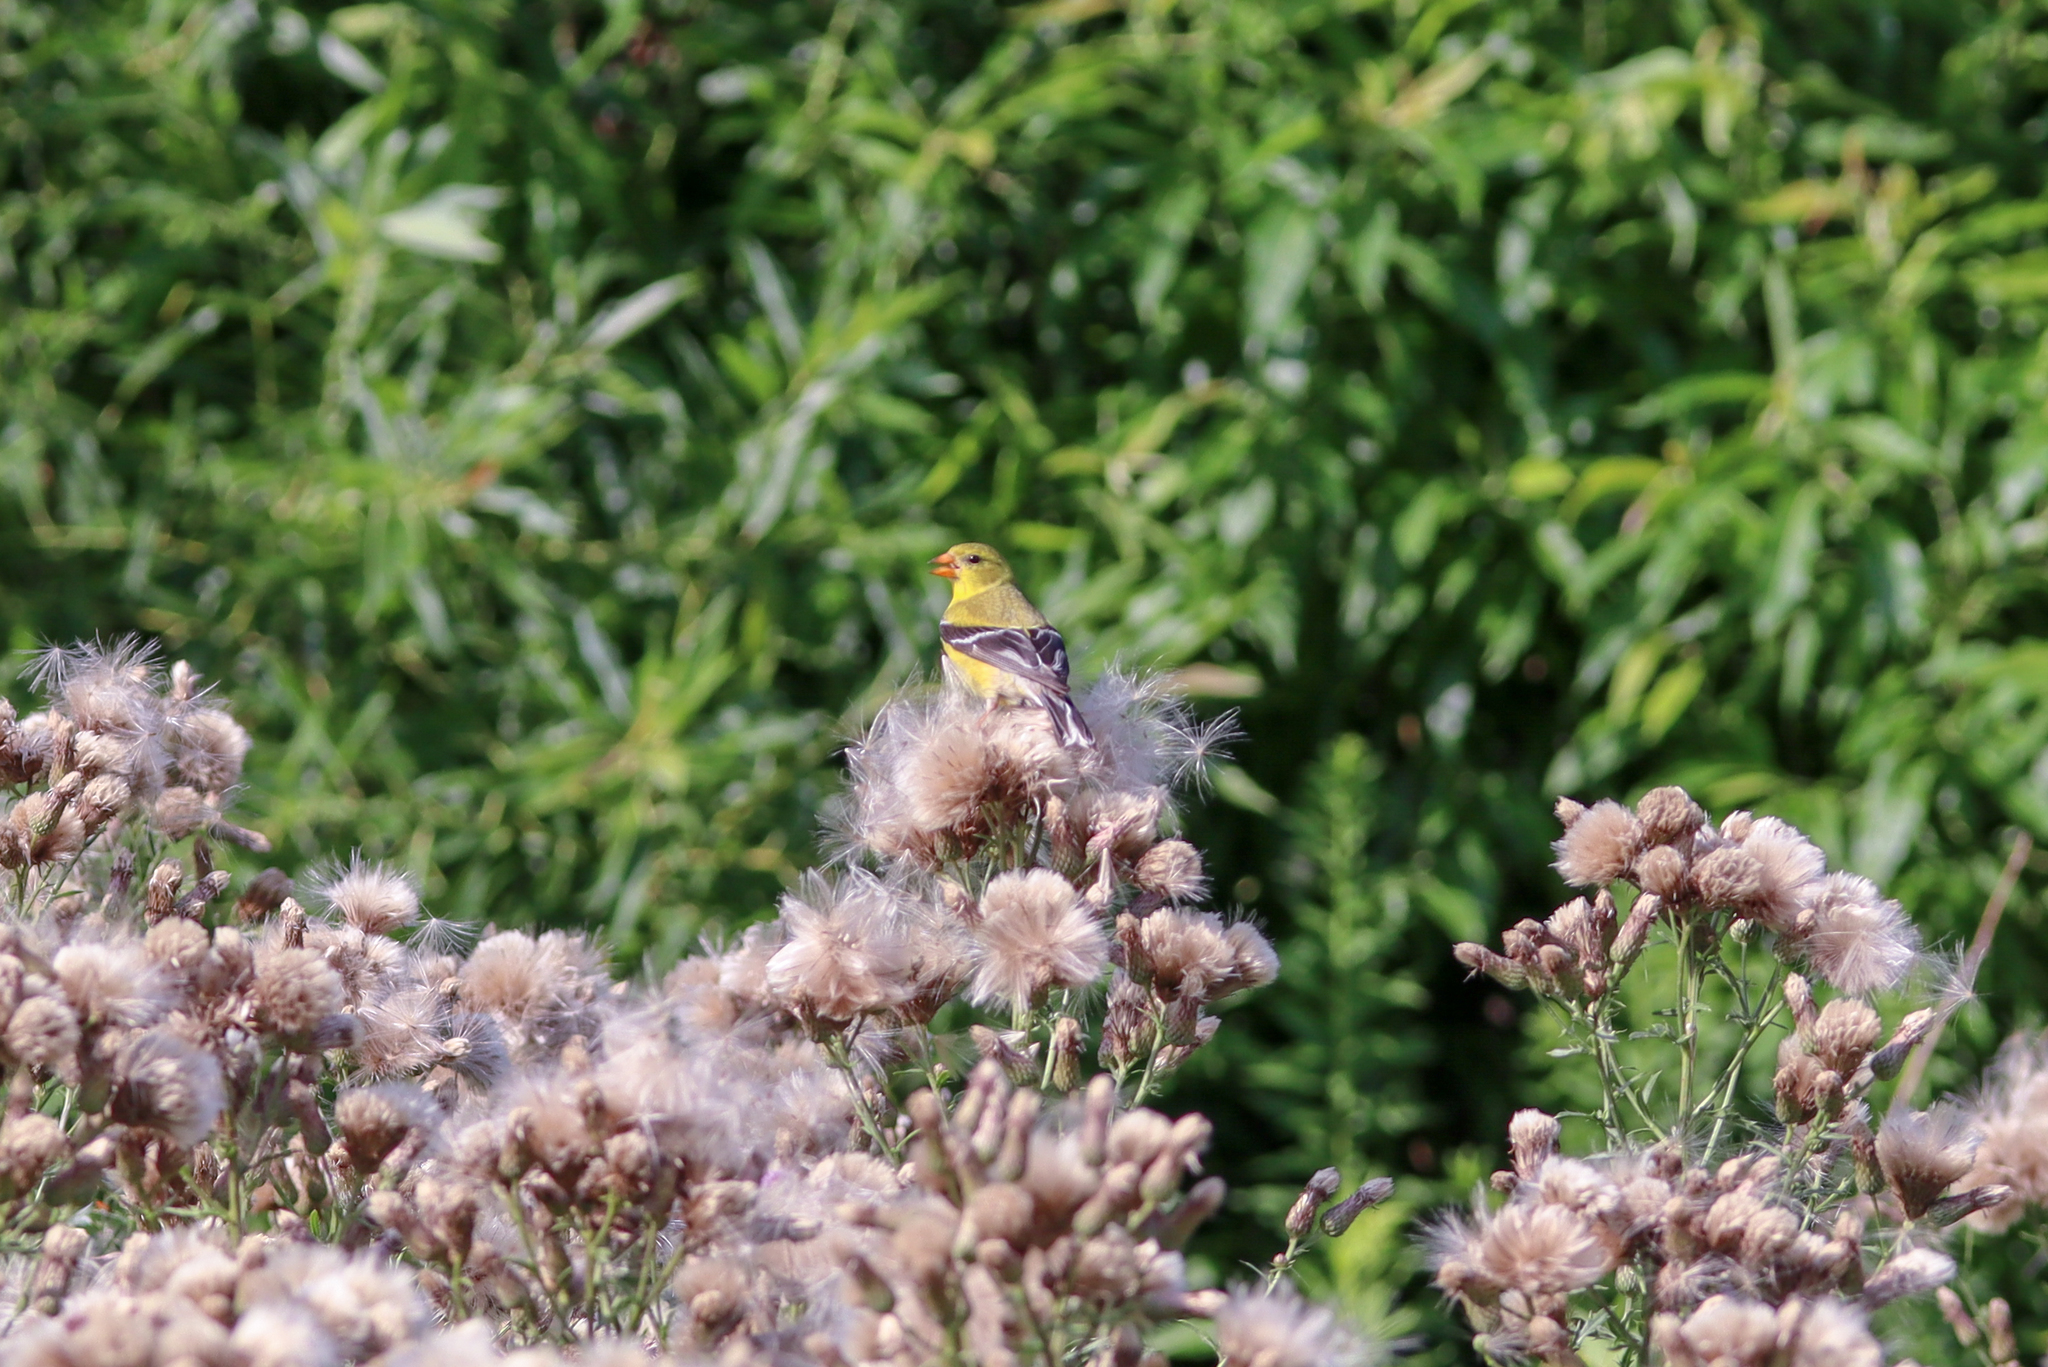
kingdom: Animalia
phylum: Chordata
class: Aves
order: Passeriformes
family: Fringillidae
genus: Spinus
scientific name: Spinus tristis
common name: American goldfinch
